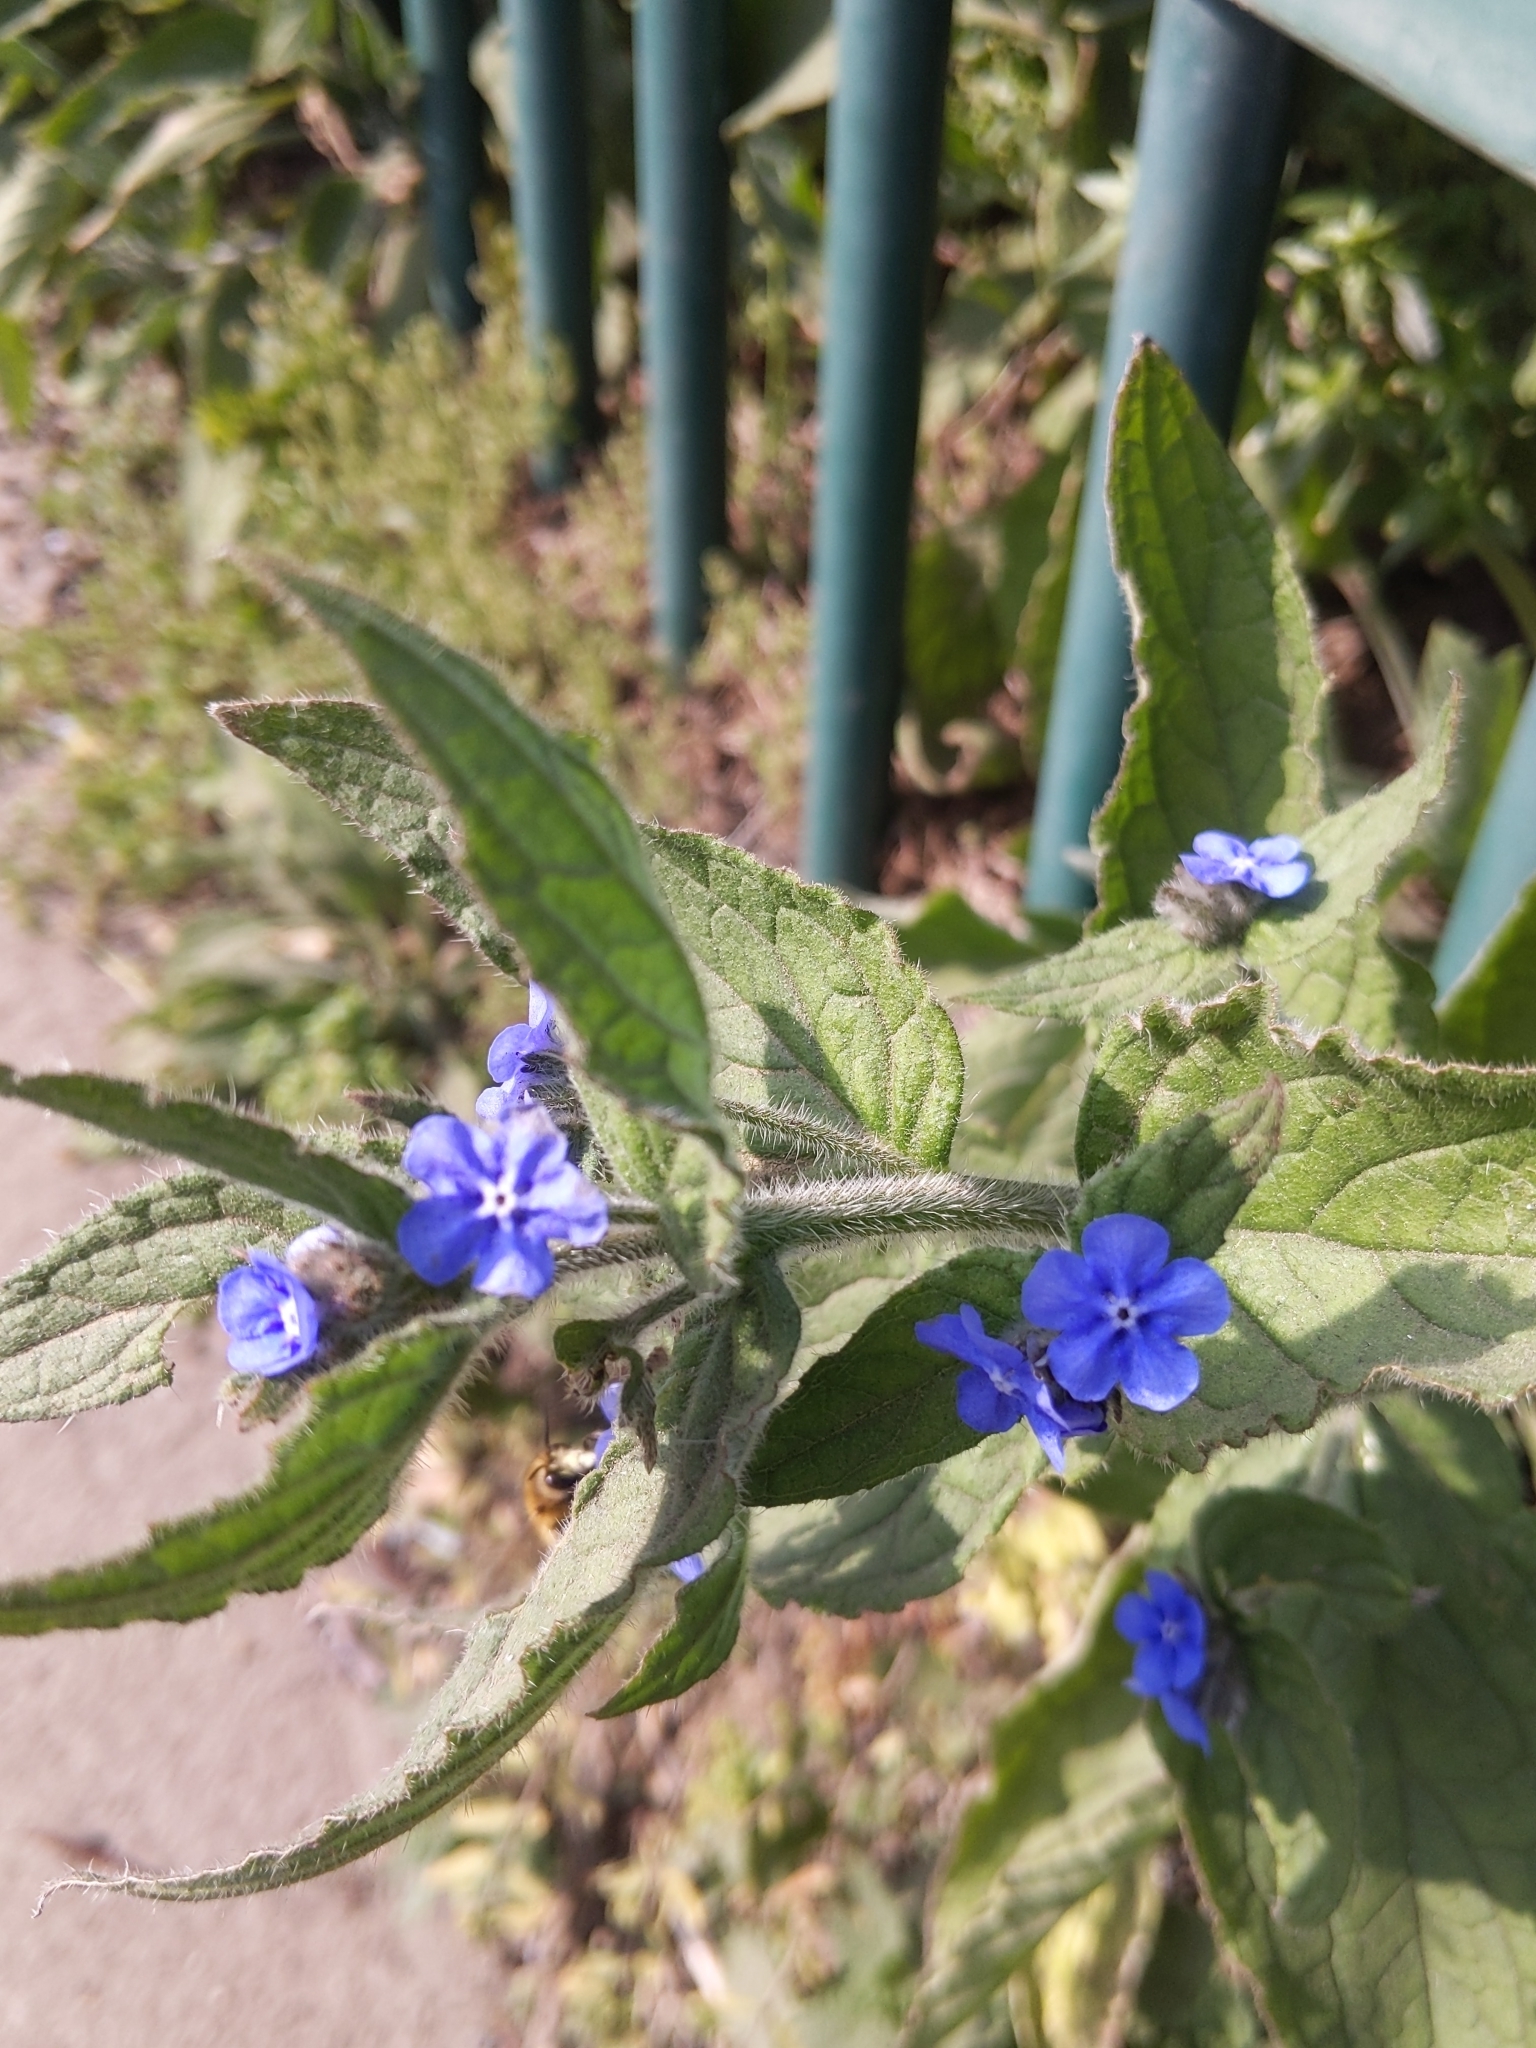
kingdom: Plantae
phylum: Tracheophyta
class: Magnoliopsida
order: Boraginales
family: Boraginaceae
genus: Pentaglottis
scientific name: Pentaglottis sempervirens
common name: Green alkanet
